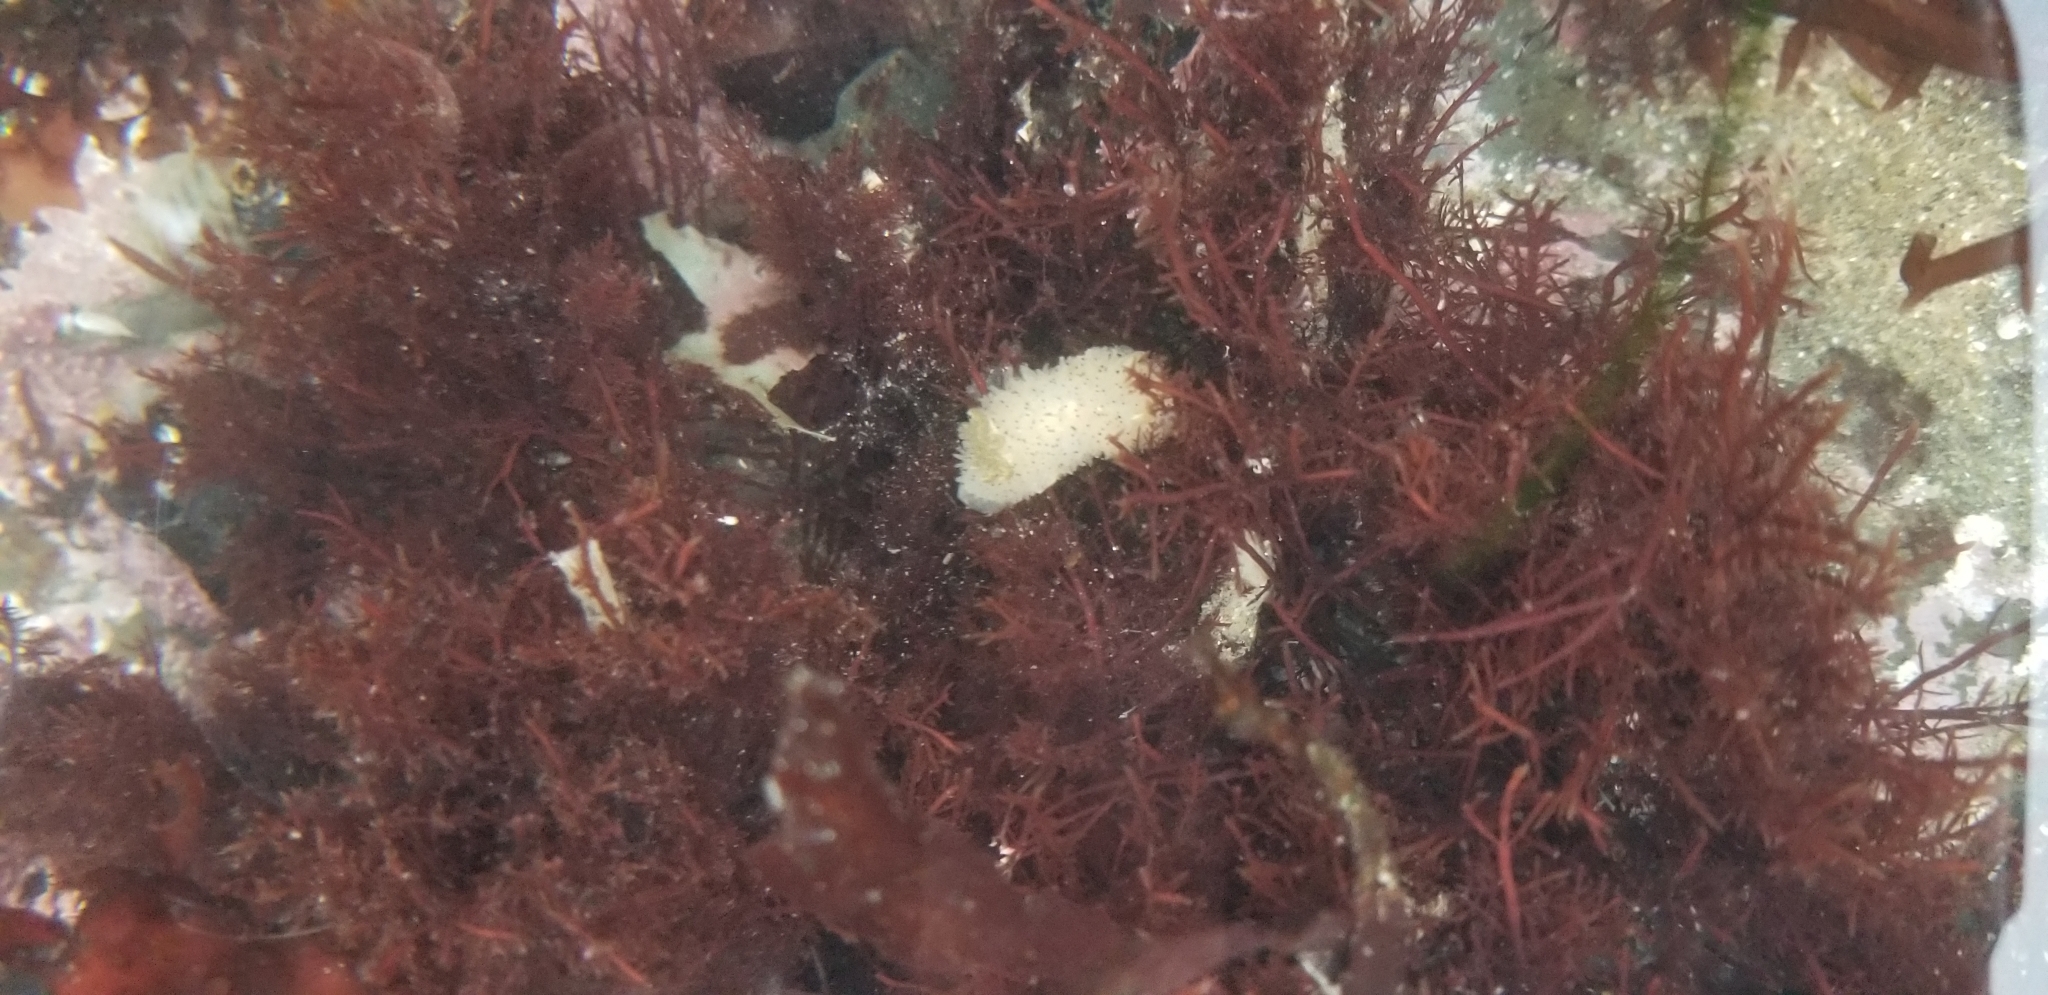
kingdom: Animalia
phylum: Mollusca
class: Gastropoda
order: Nudibranchia
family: Onchidorididae
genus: Acanthodoris
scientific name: Acanthodoris rhodoceras
